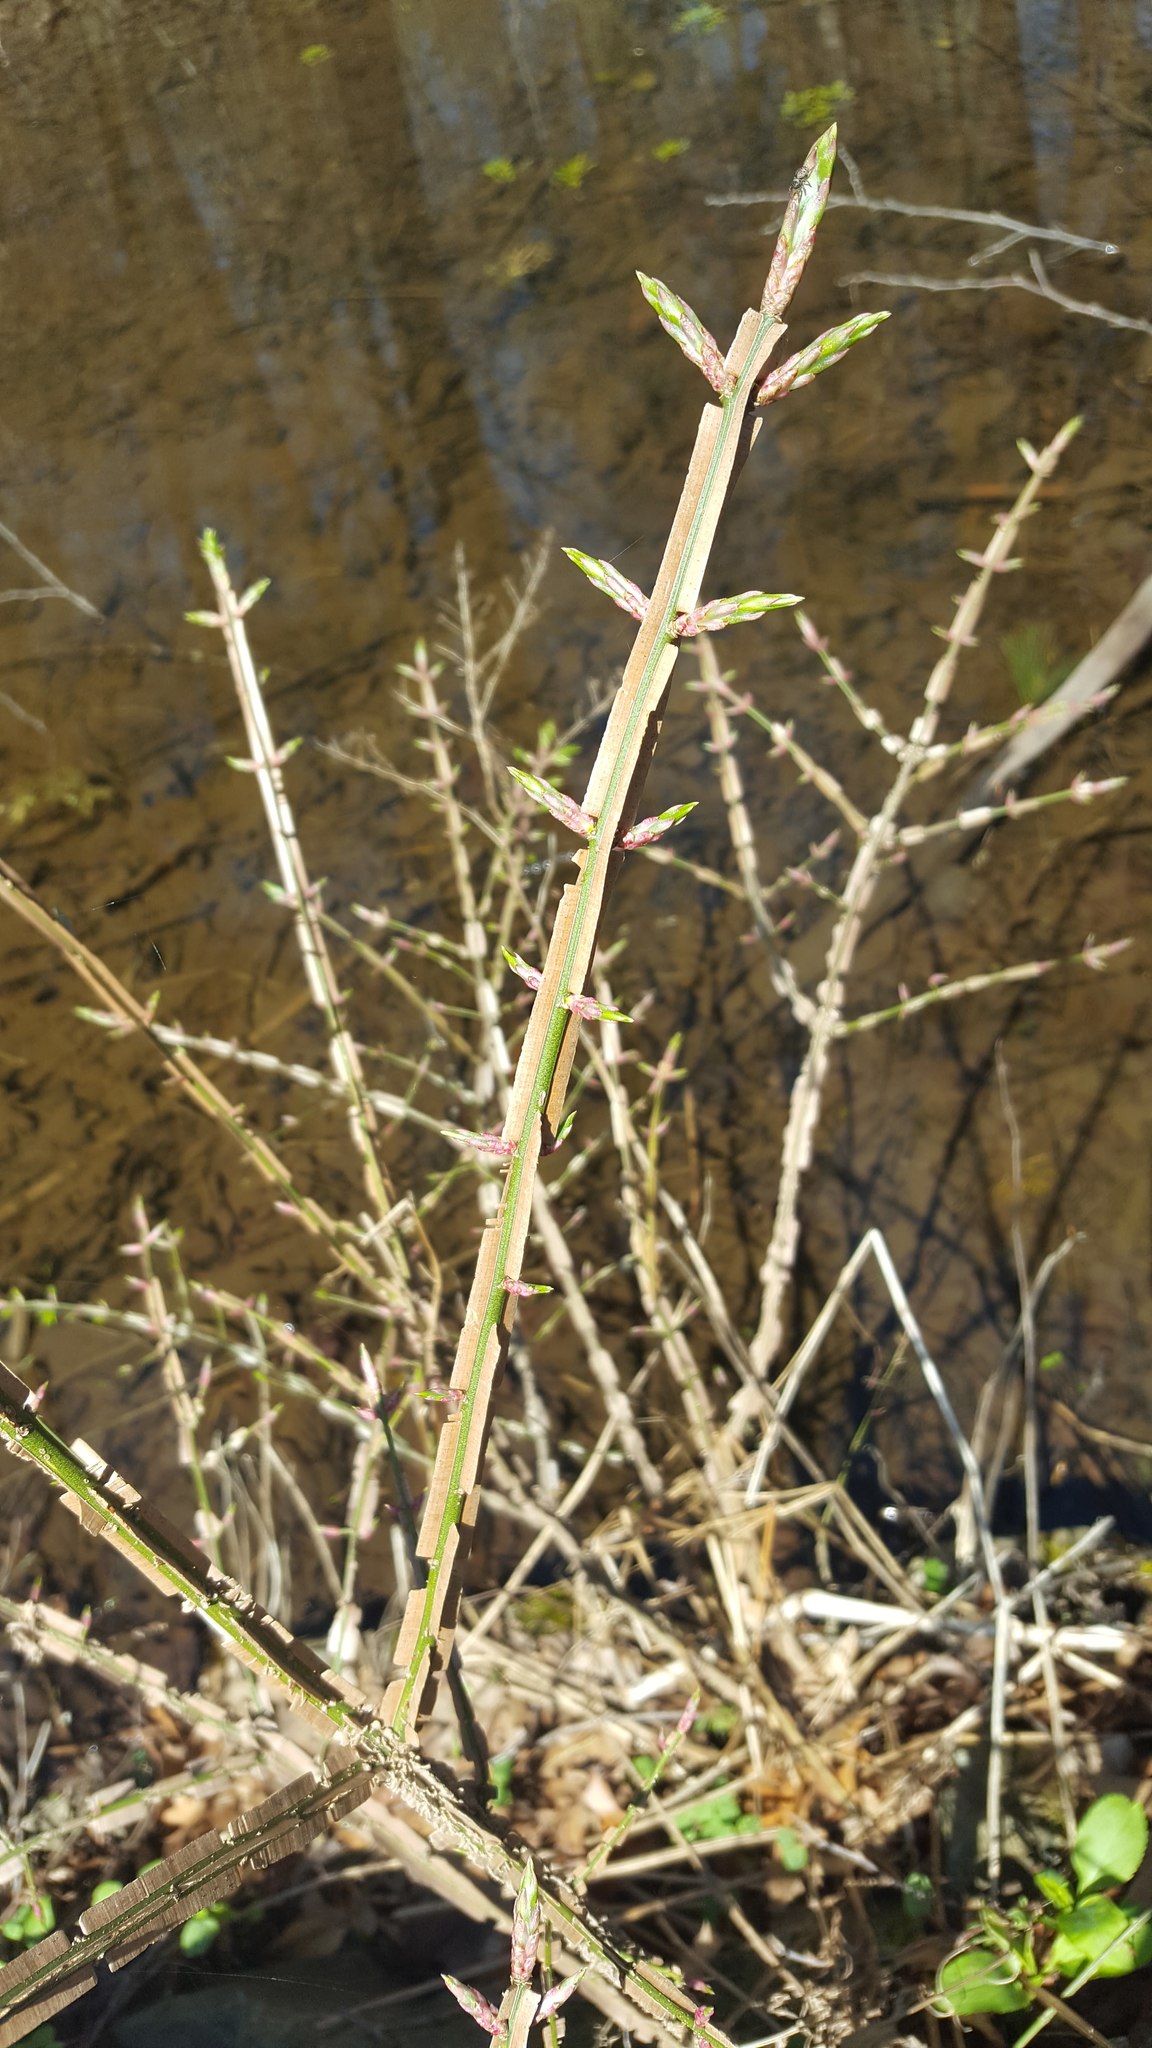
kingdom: Plantae
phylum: Tracheophyta
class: Magnoliopsida
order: Celastrales
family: Celastraceae
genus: Euonymus
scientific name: Euonymus alatus
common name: Winged euonymus
